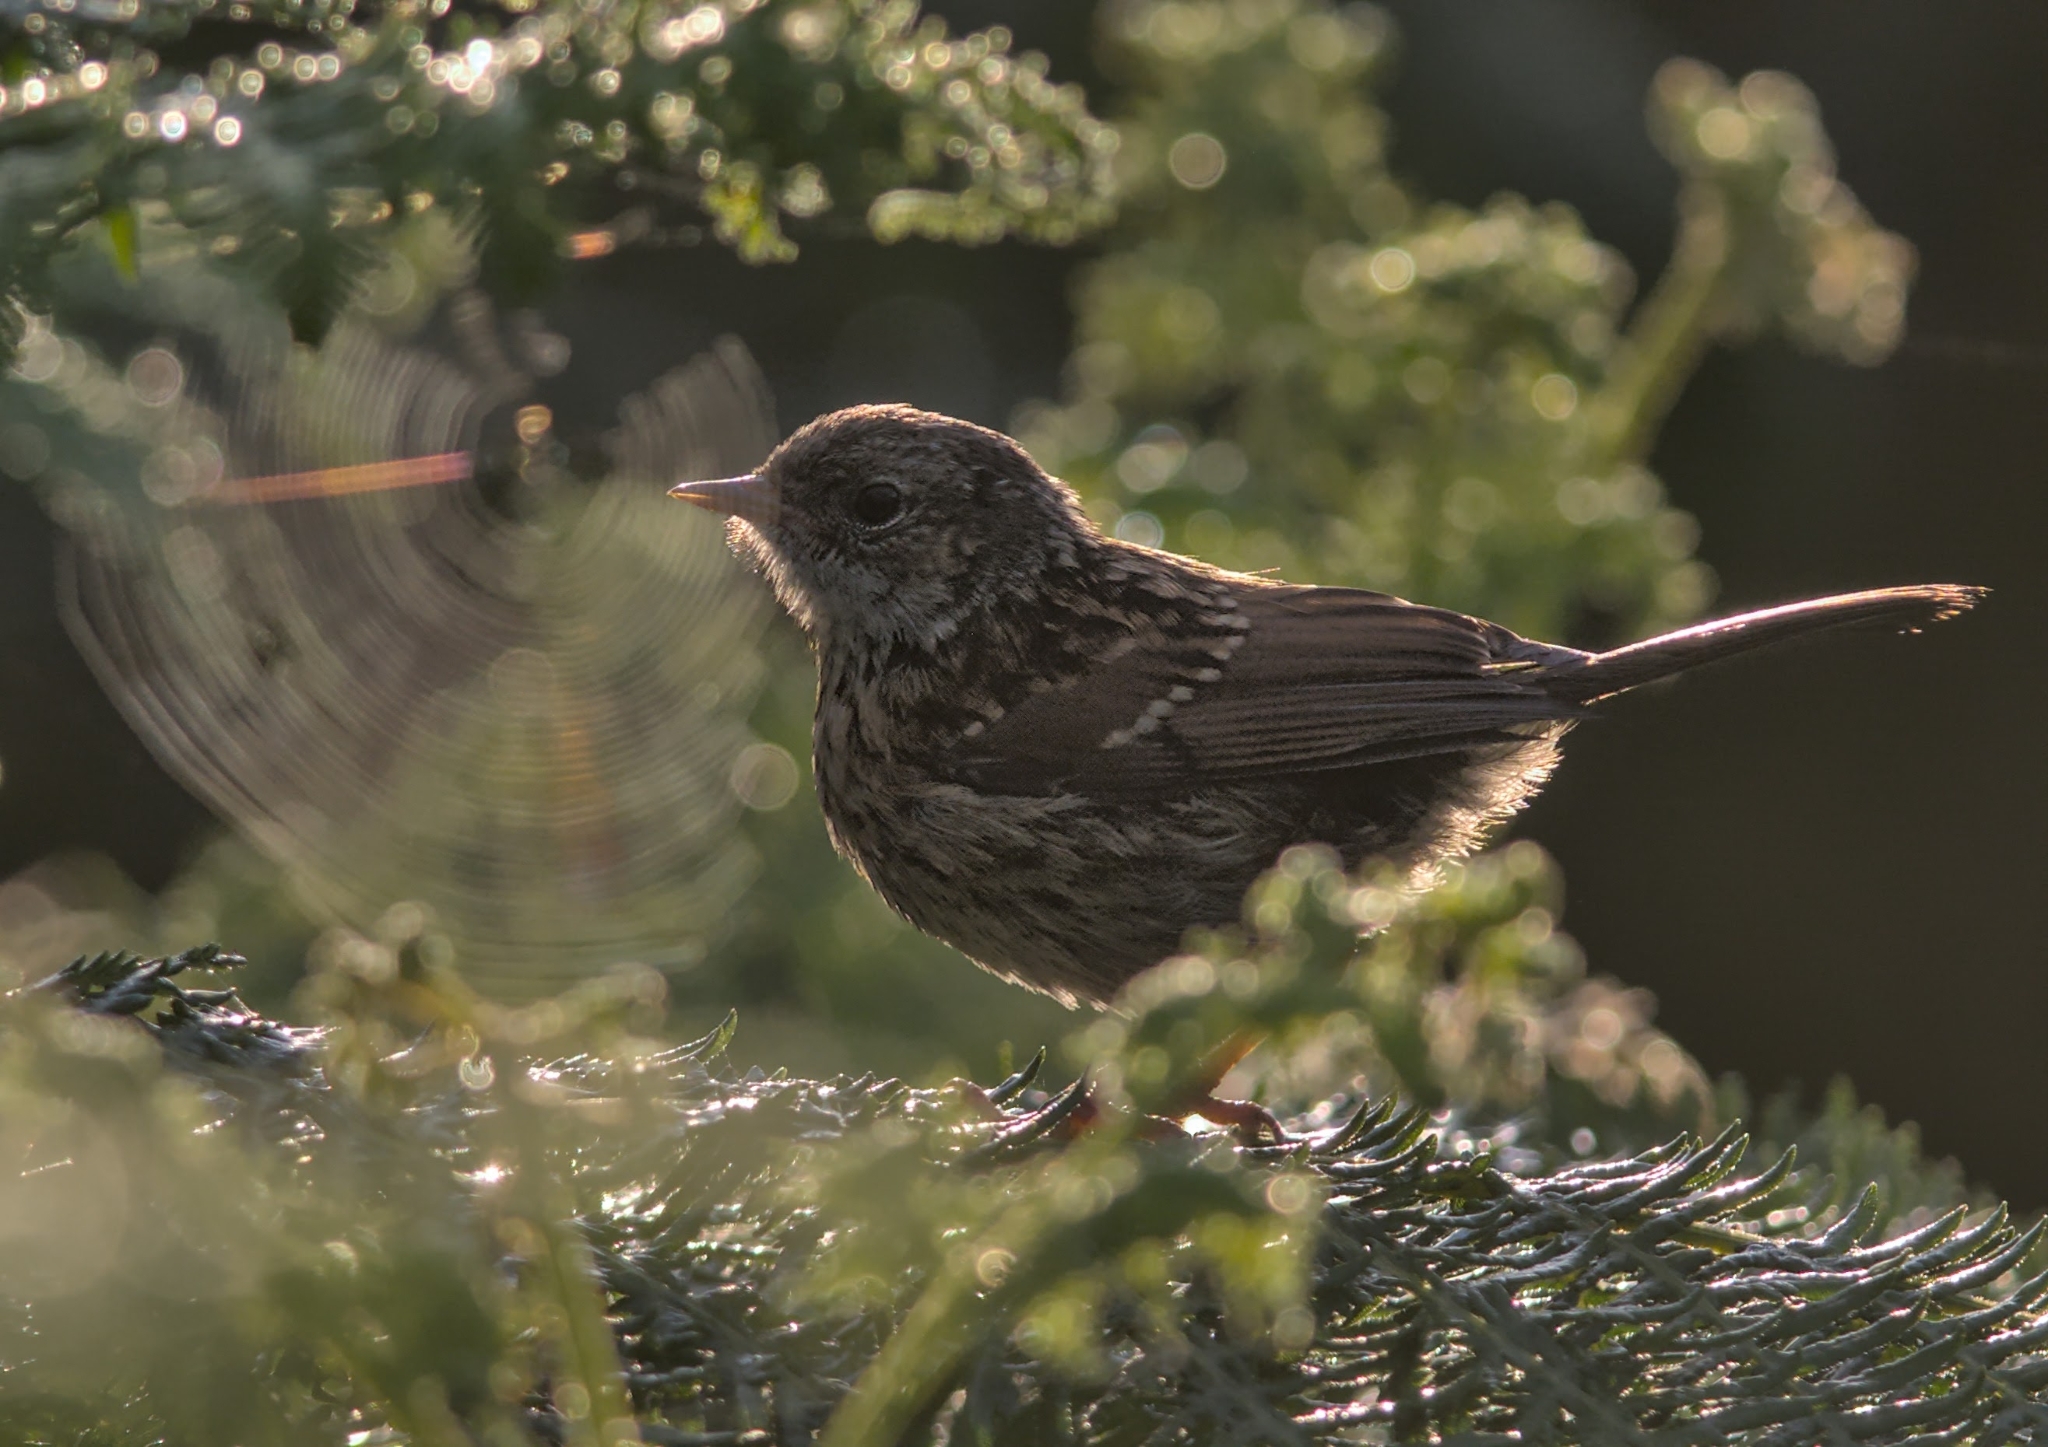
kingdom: Animalia
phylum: Chordata
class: Aves
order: Passeriformes
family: Prunellidae
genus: Prunella
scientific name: Prunella modularis
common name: Dunnock
